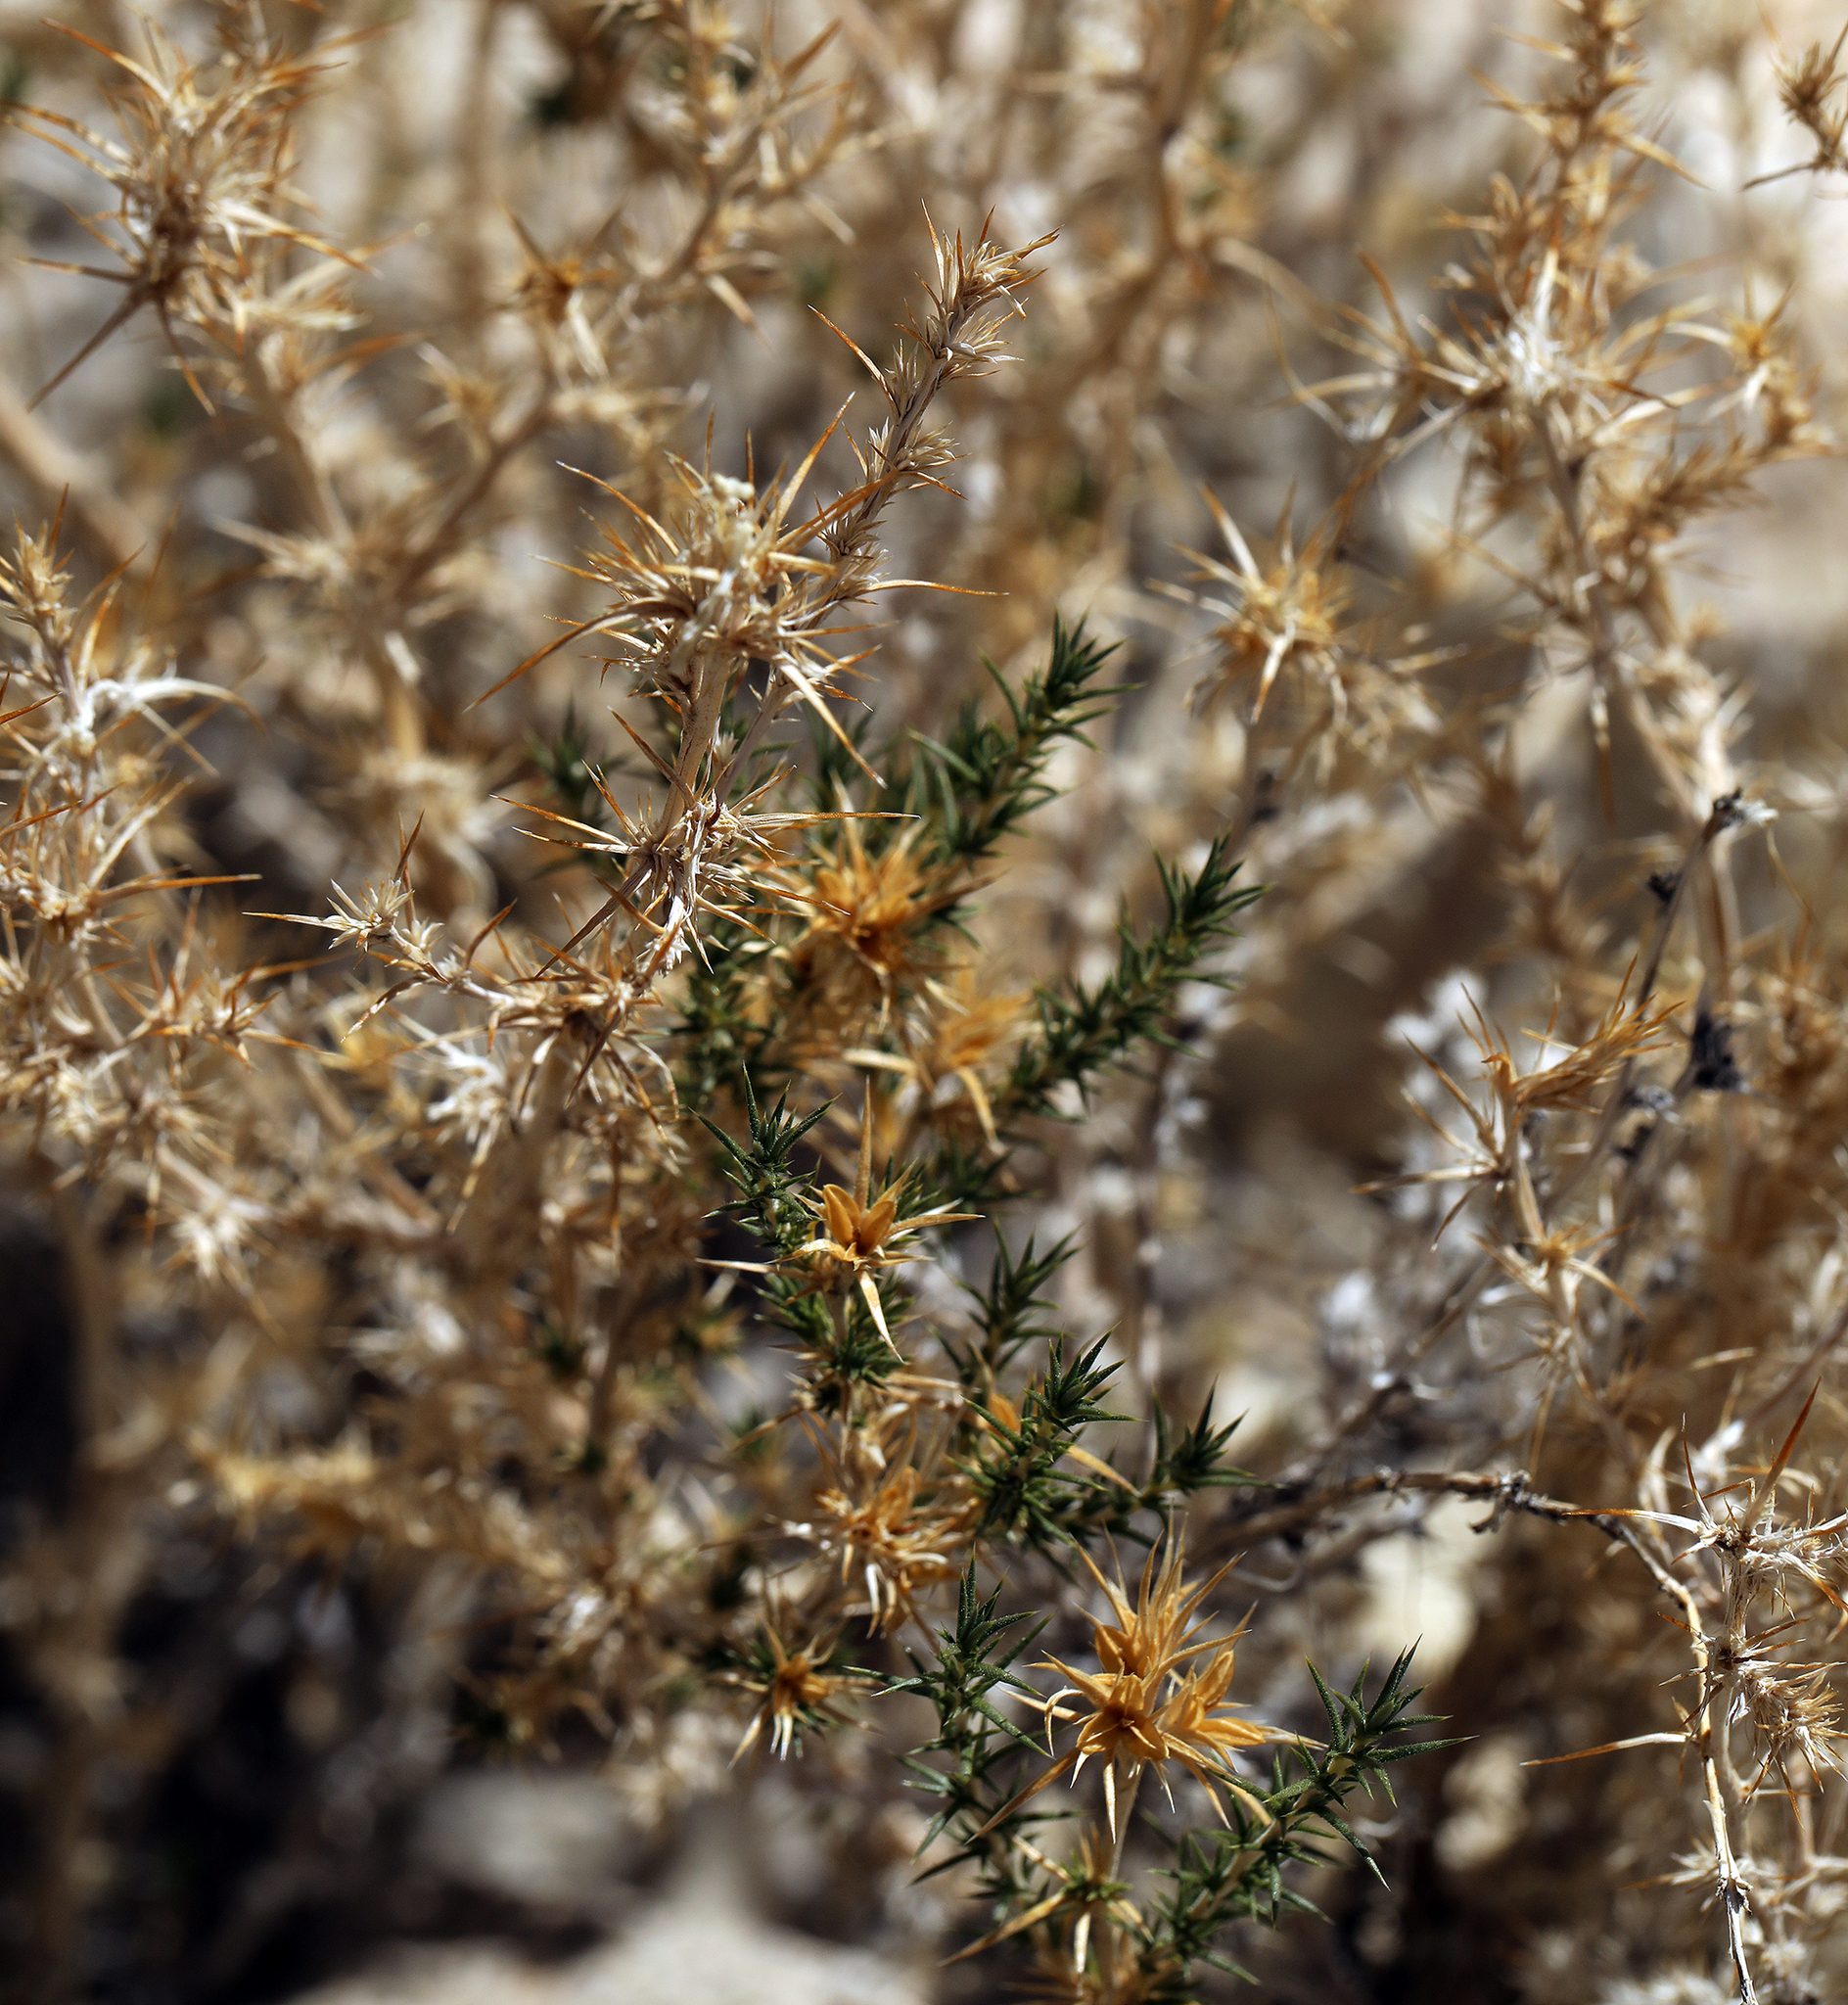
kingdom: Plantae
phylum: Tracheophyta
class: Magnoliopsida
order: Ericales
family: Polemoniaceae
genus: Linanthus
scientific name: Linanthus pungens
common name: Granite prickly phlox
